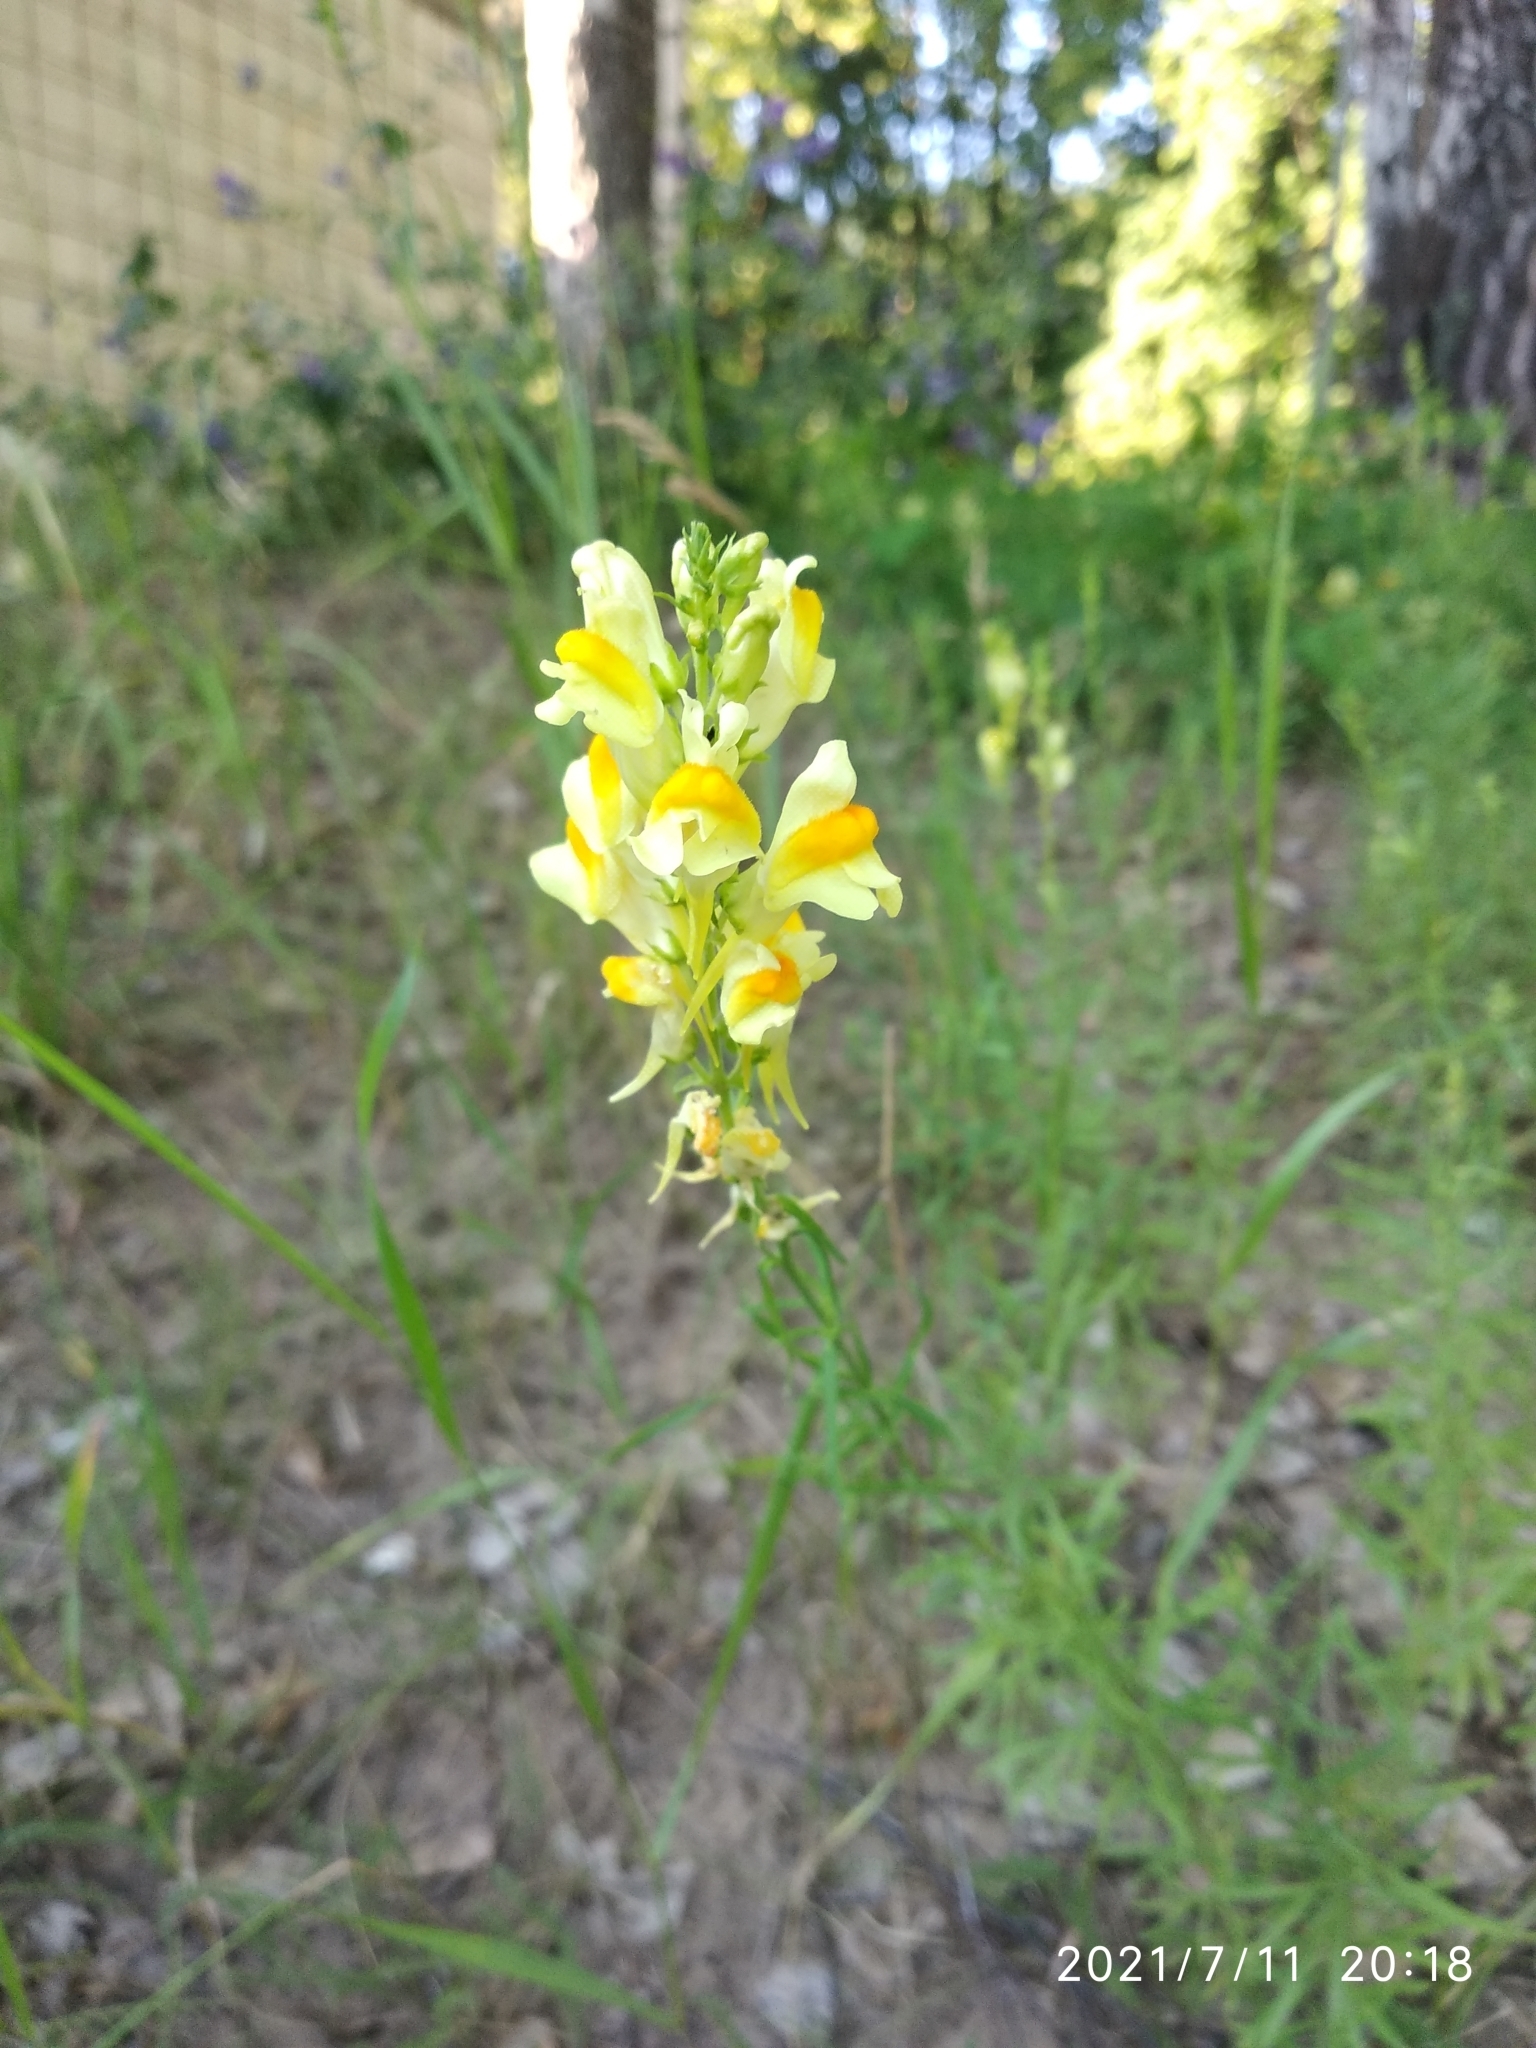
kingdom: Plantae
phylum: Tracheophyta
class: Magnoliopsida
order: Lamiales
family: Plantaginaceae
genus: Linaria
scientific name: Linaria vulgaris
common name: Butter and eggs
